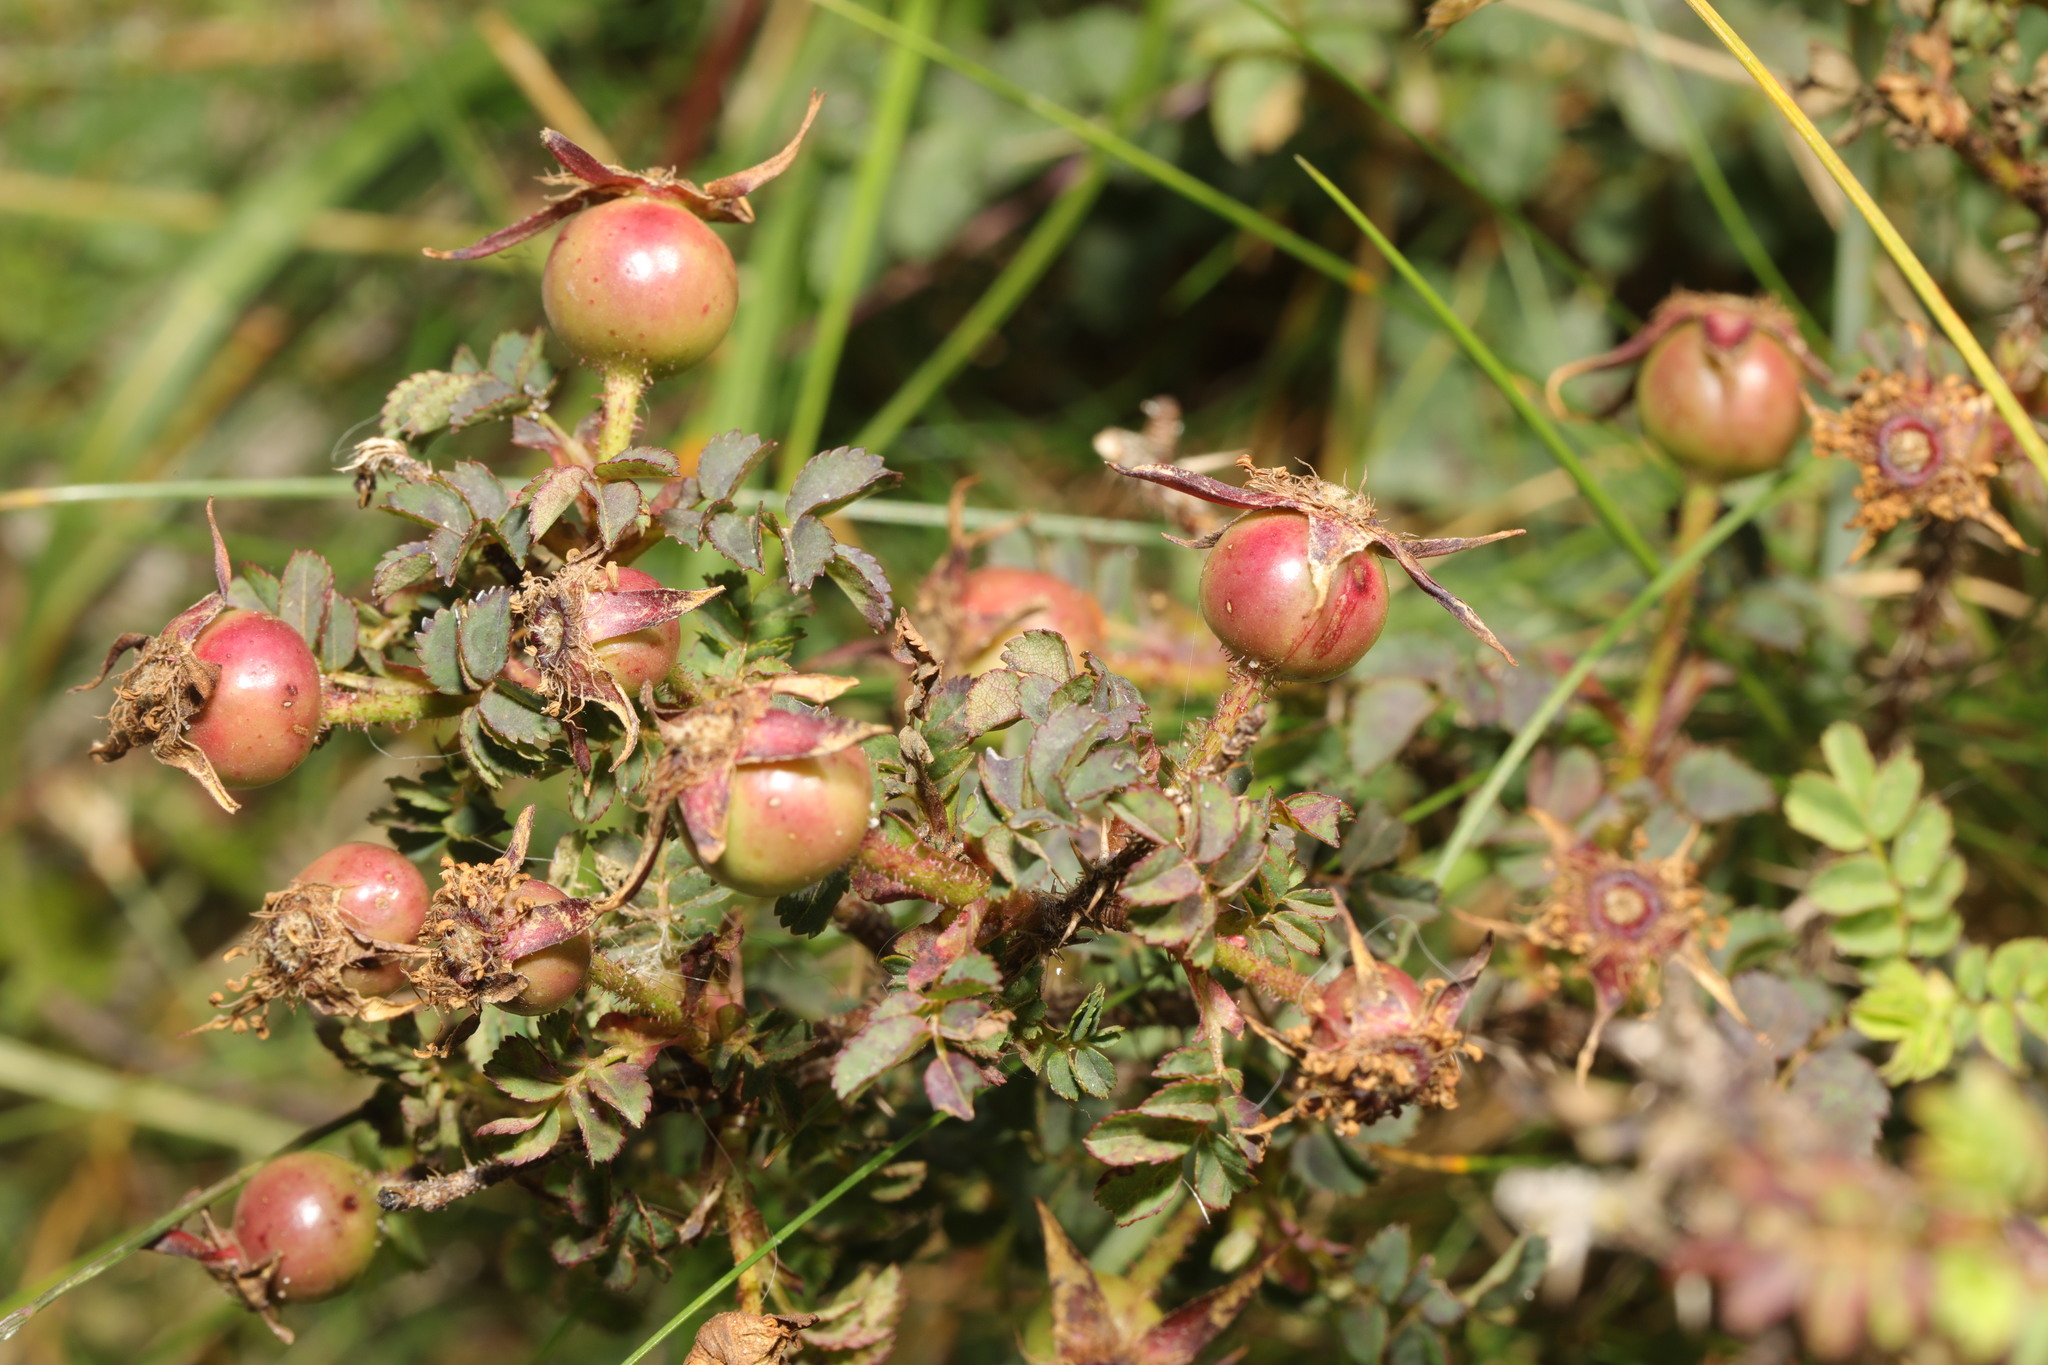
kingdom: Plantae
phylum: Tracheophyta
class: Magnoliopsida
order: Rosales
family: Rosaceae
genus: Rosa
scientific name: Rosa spinosissima
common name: Burnet rose
